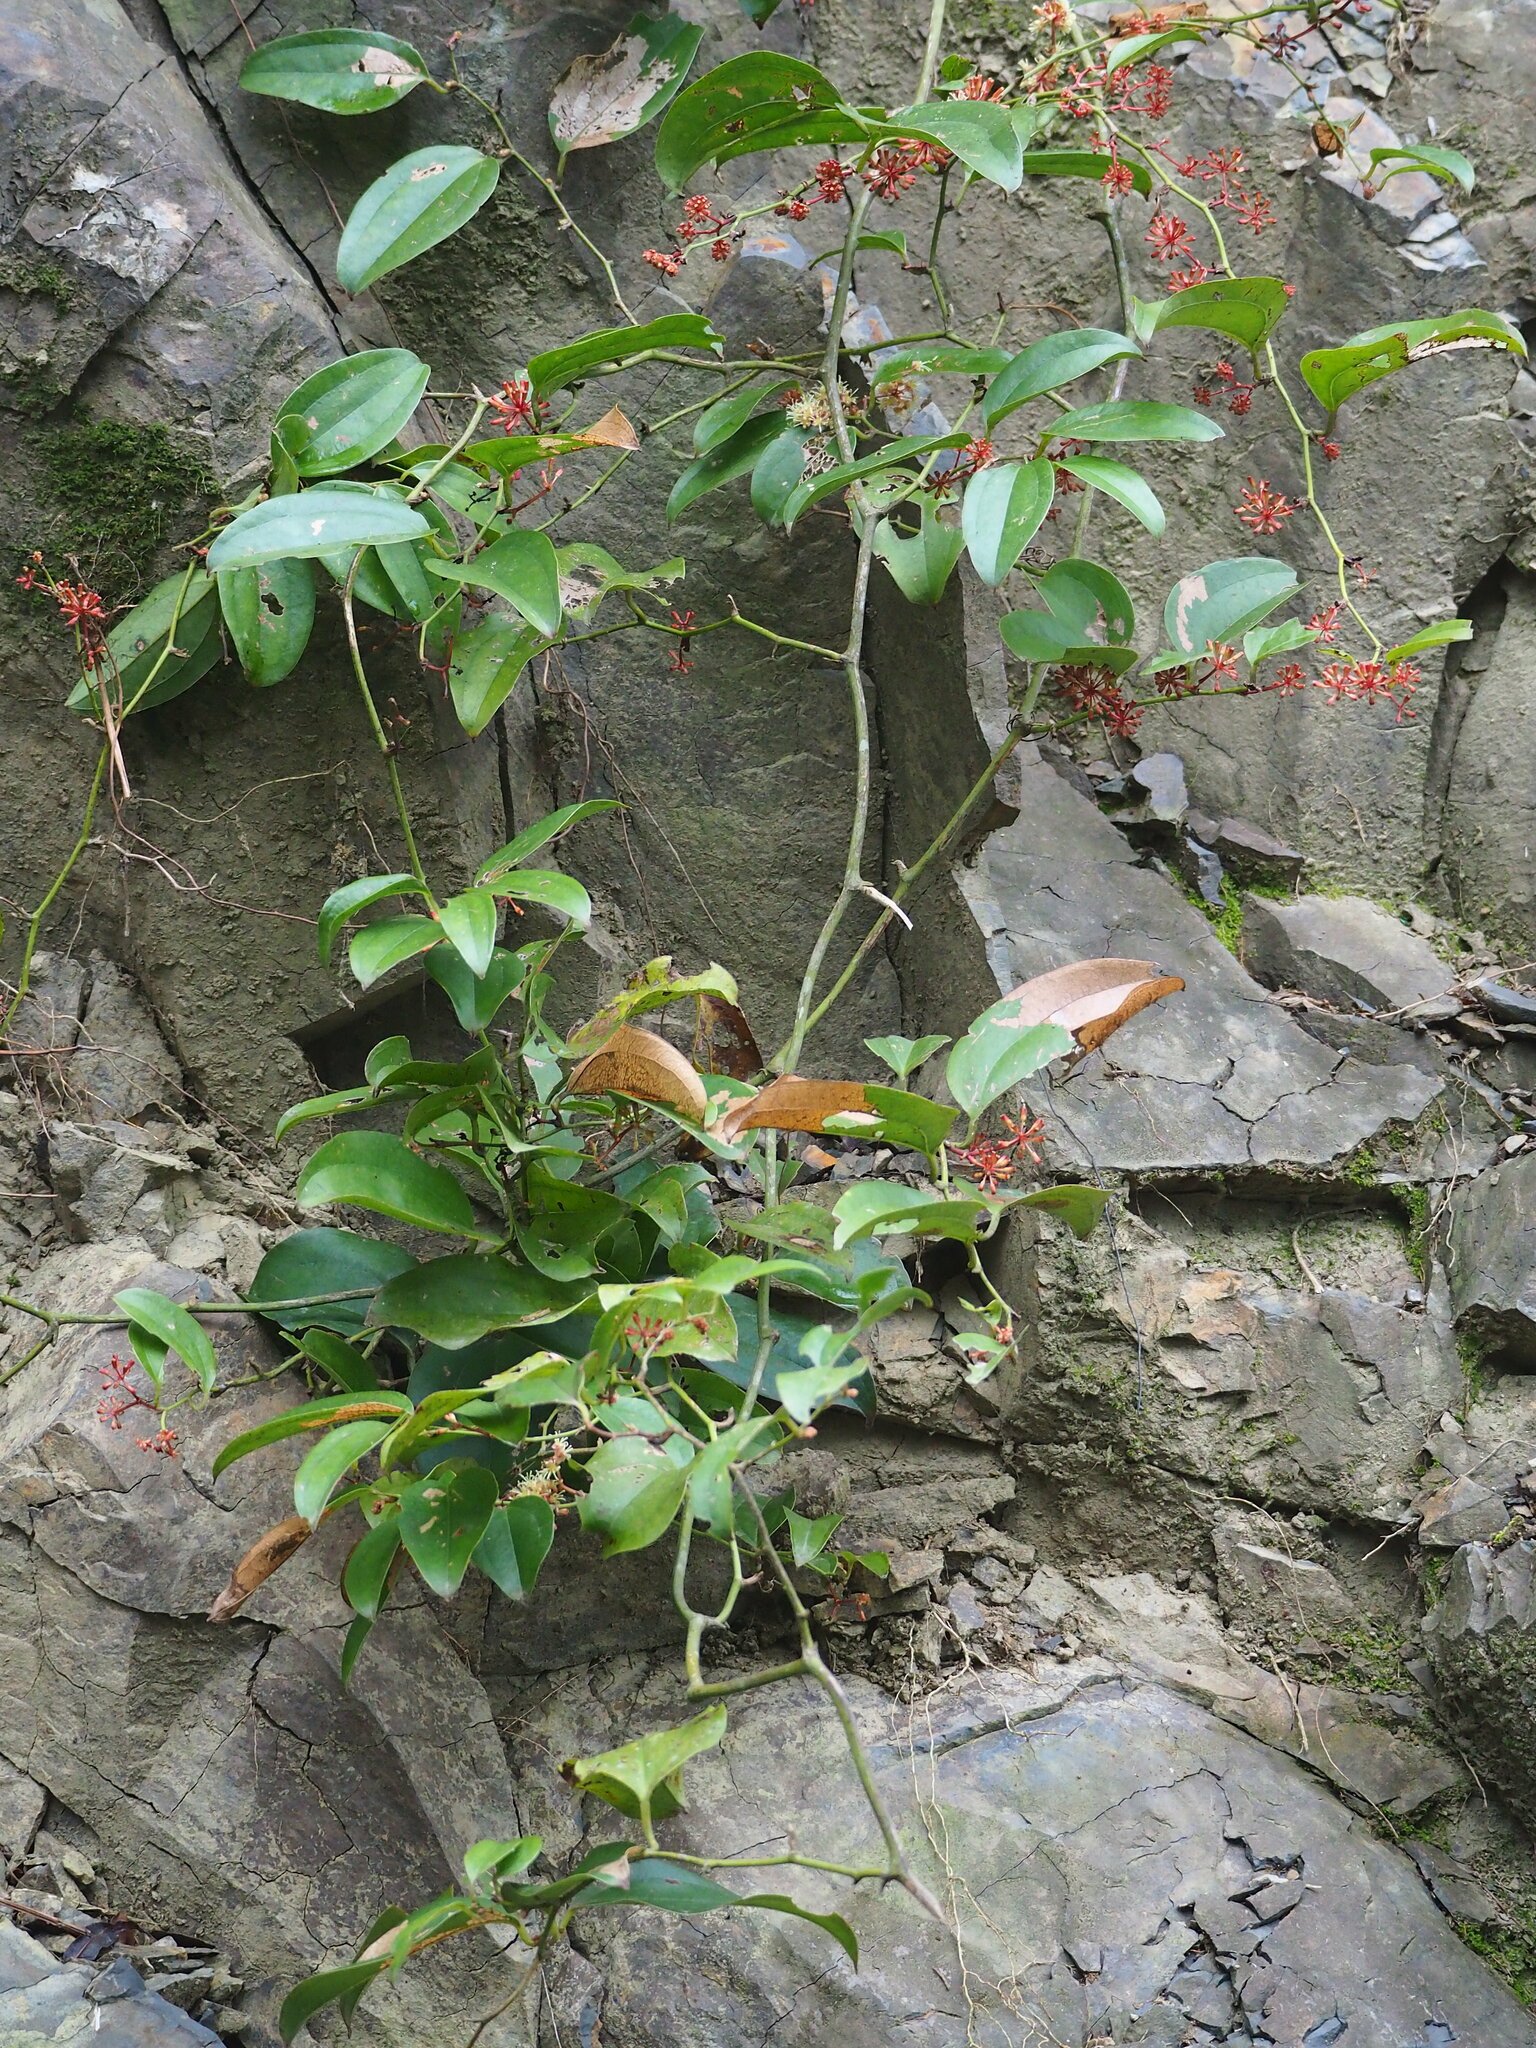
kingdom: Plantae
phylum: Tracheophyta
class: Liliopsida
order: Liliales
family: Smilacaceae
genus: Smilax
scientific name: Smilax bracteata
